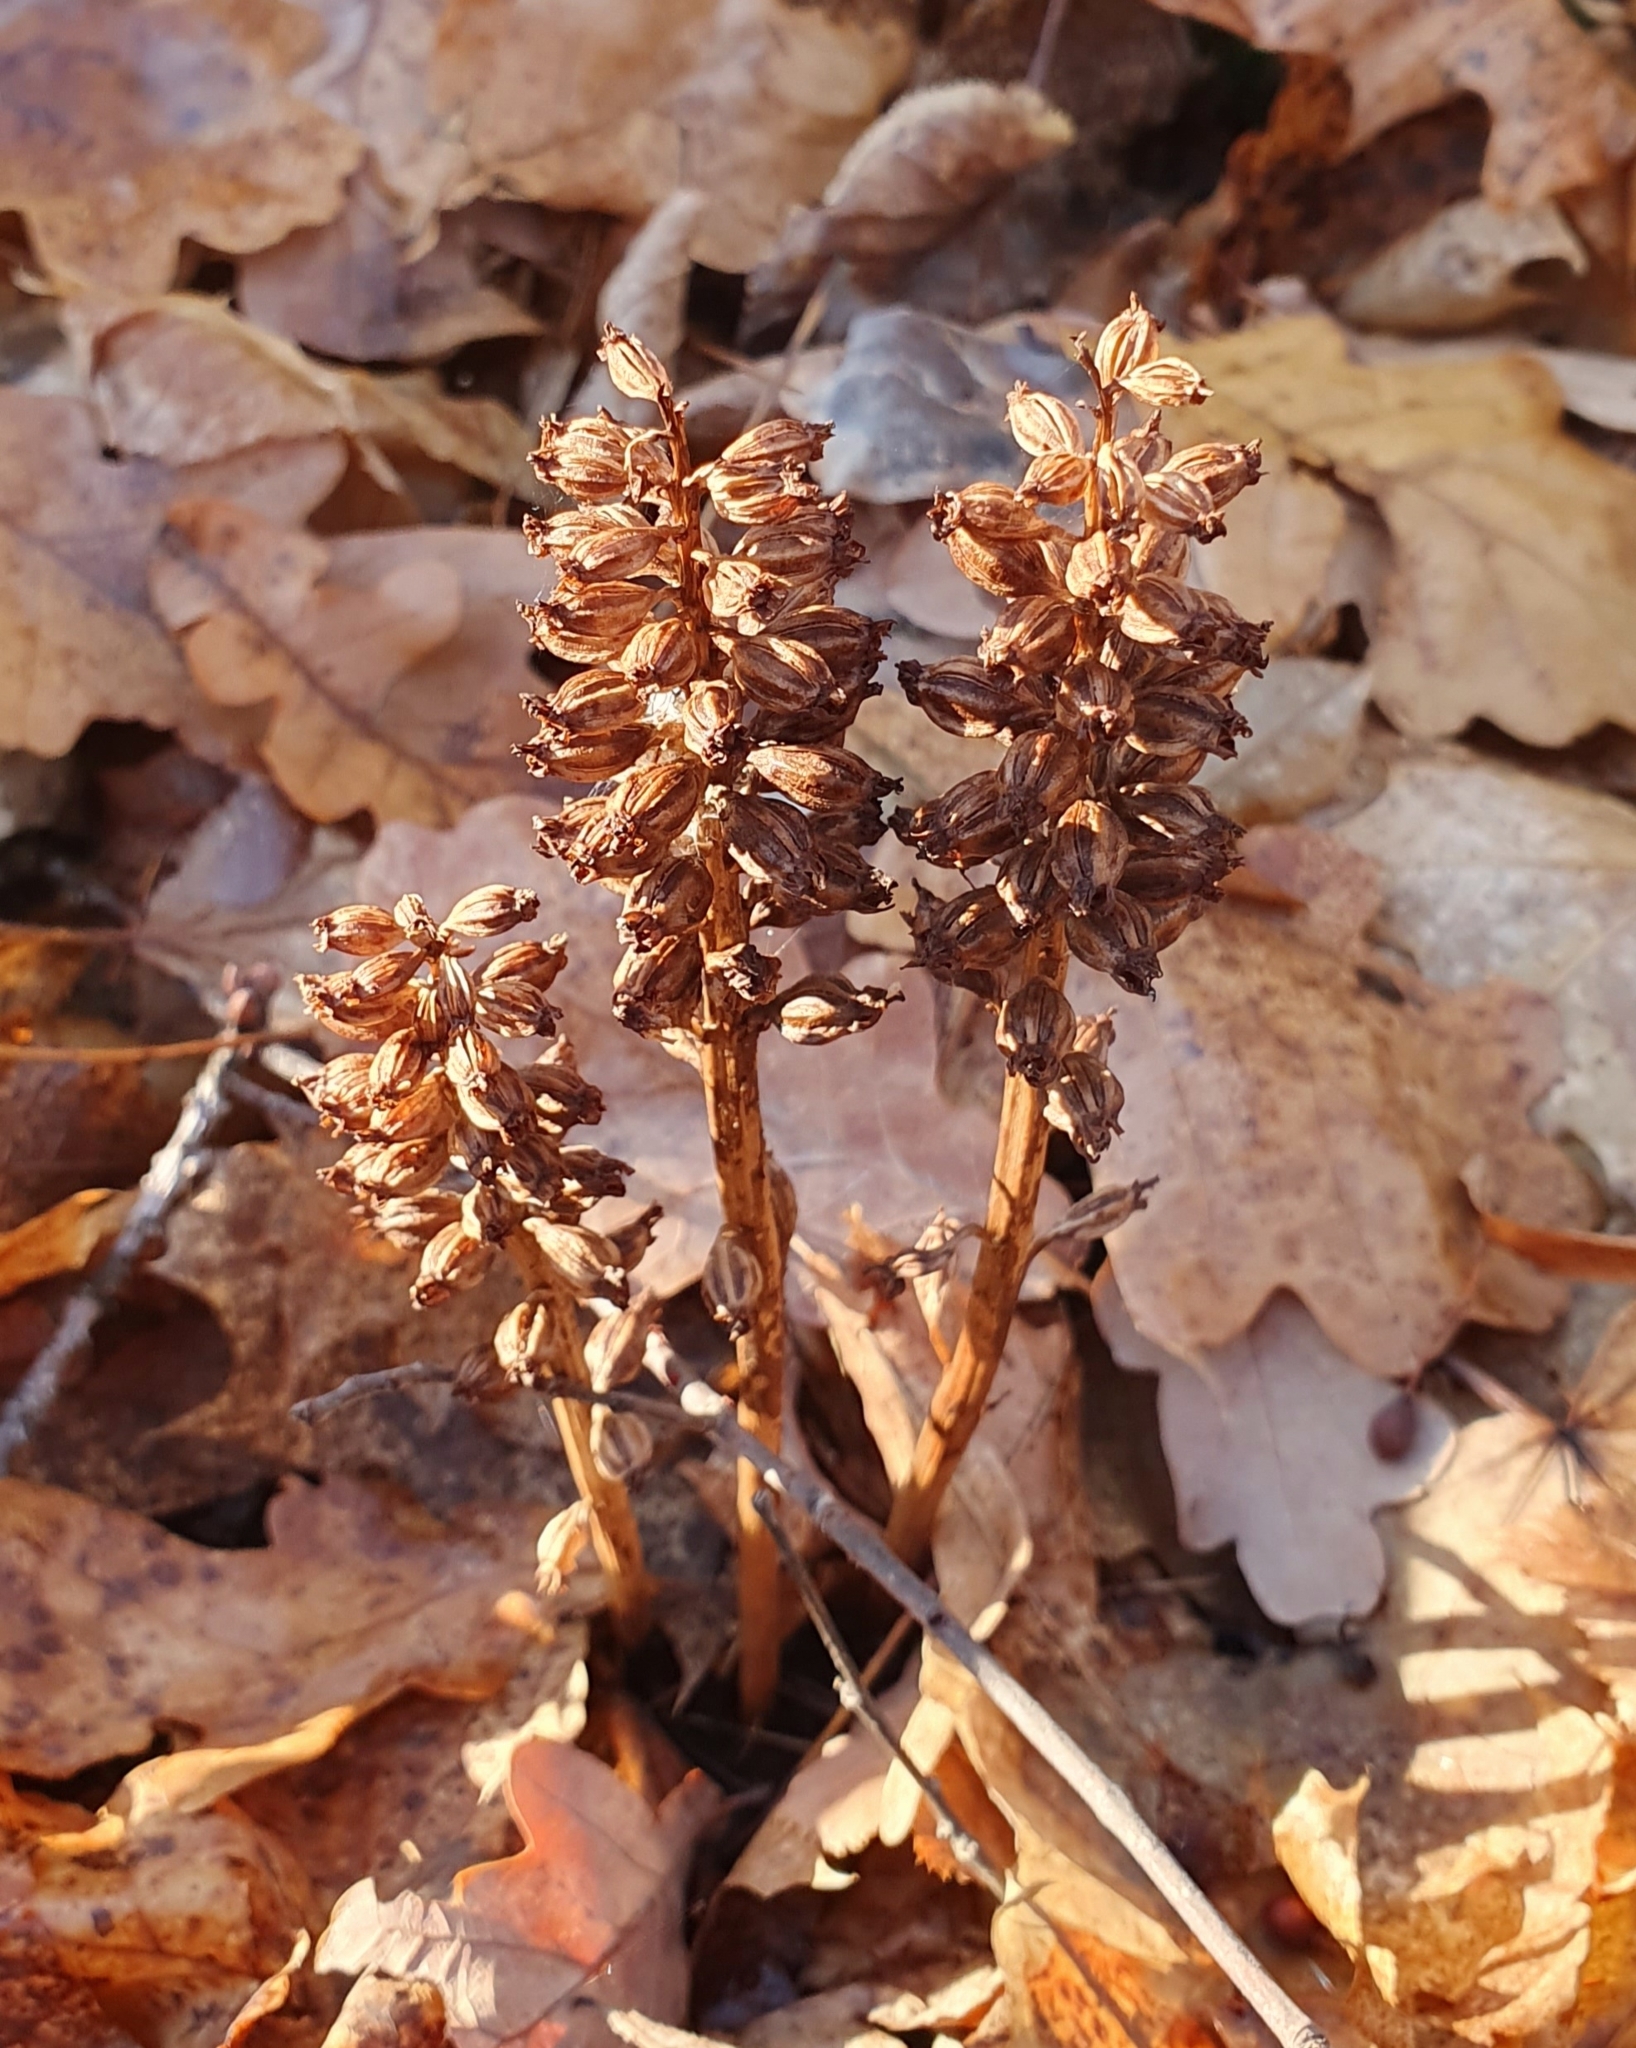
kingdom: Plantae
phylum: Tracheophyta
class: Liliopsida
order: Asparagales
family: Orchidaceae
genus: Neottia
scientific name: Neottia nidus-avis
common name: Bird's-nest orchid
